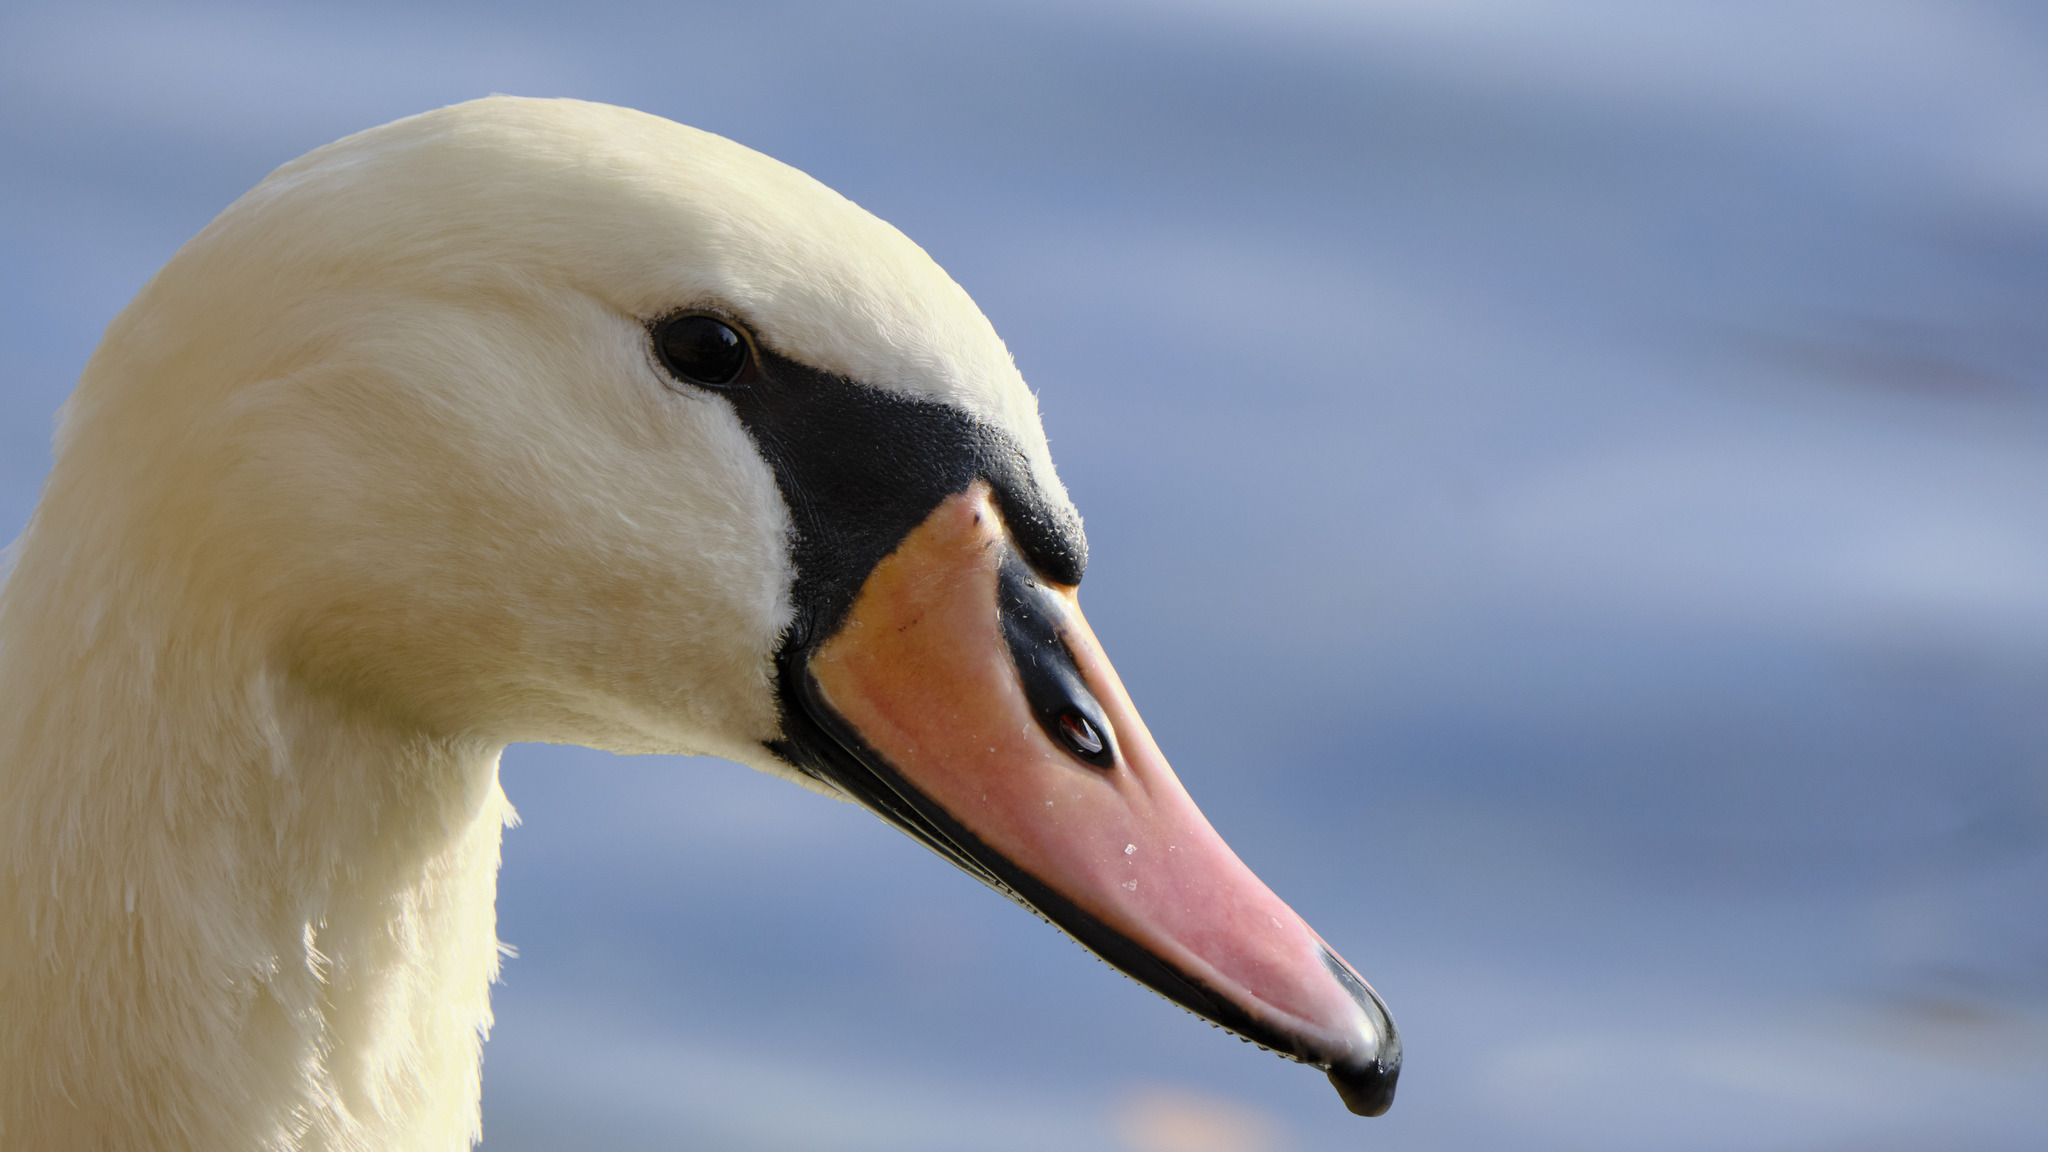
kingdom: Animalia
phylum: Chordata
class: Aves
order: Anseriformes
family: Anatidae
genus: Cygnus
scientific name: Cygnus olor
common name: Mute swan
